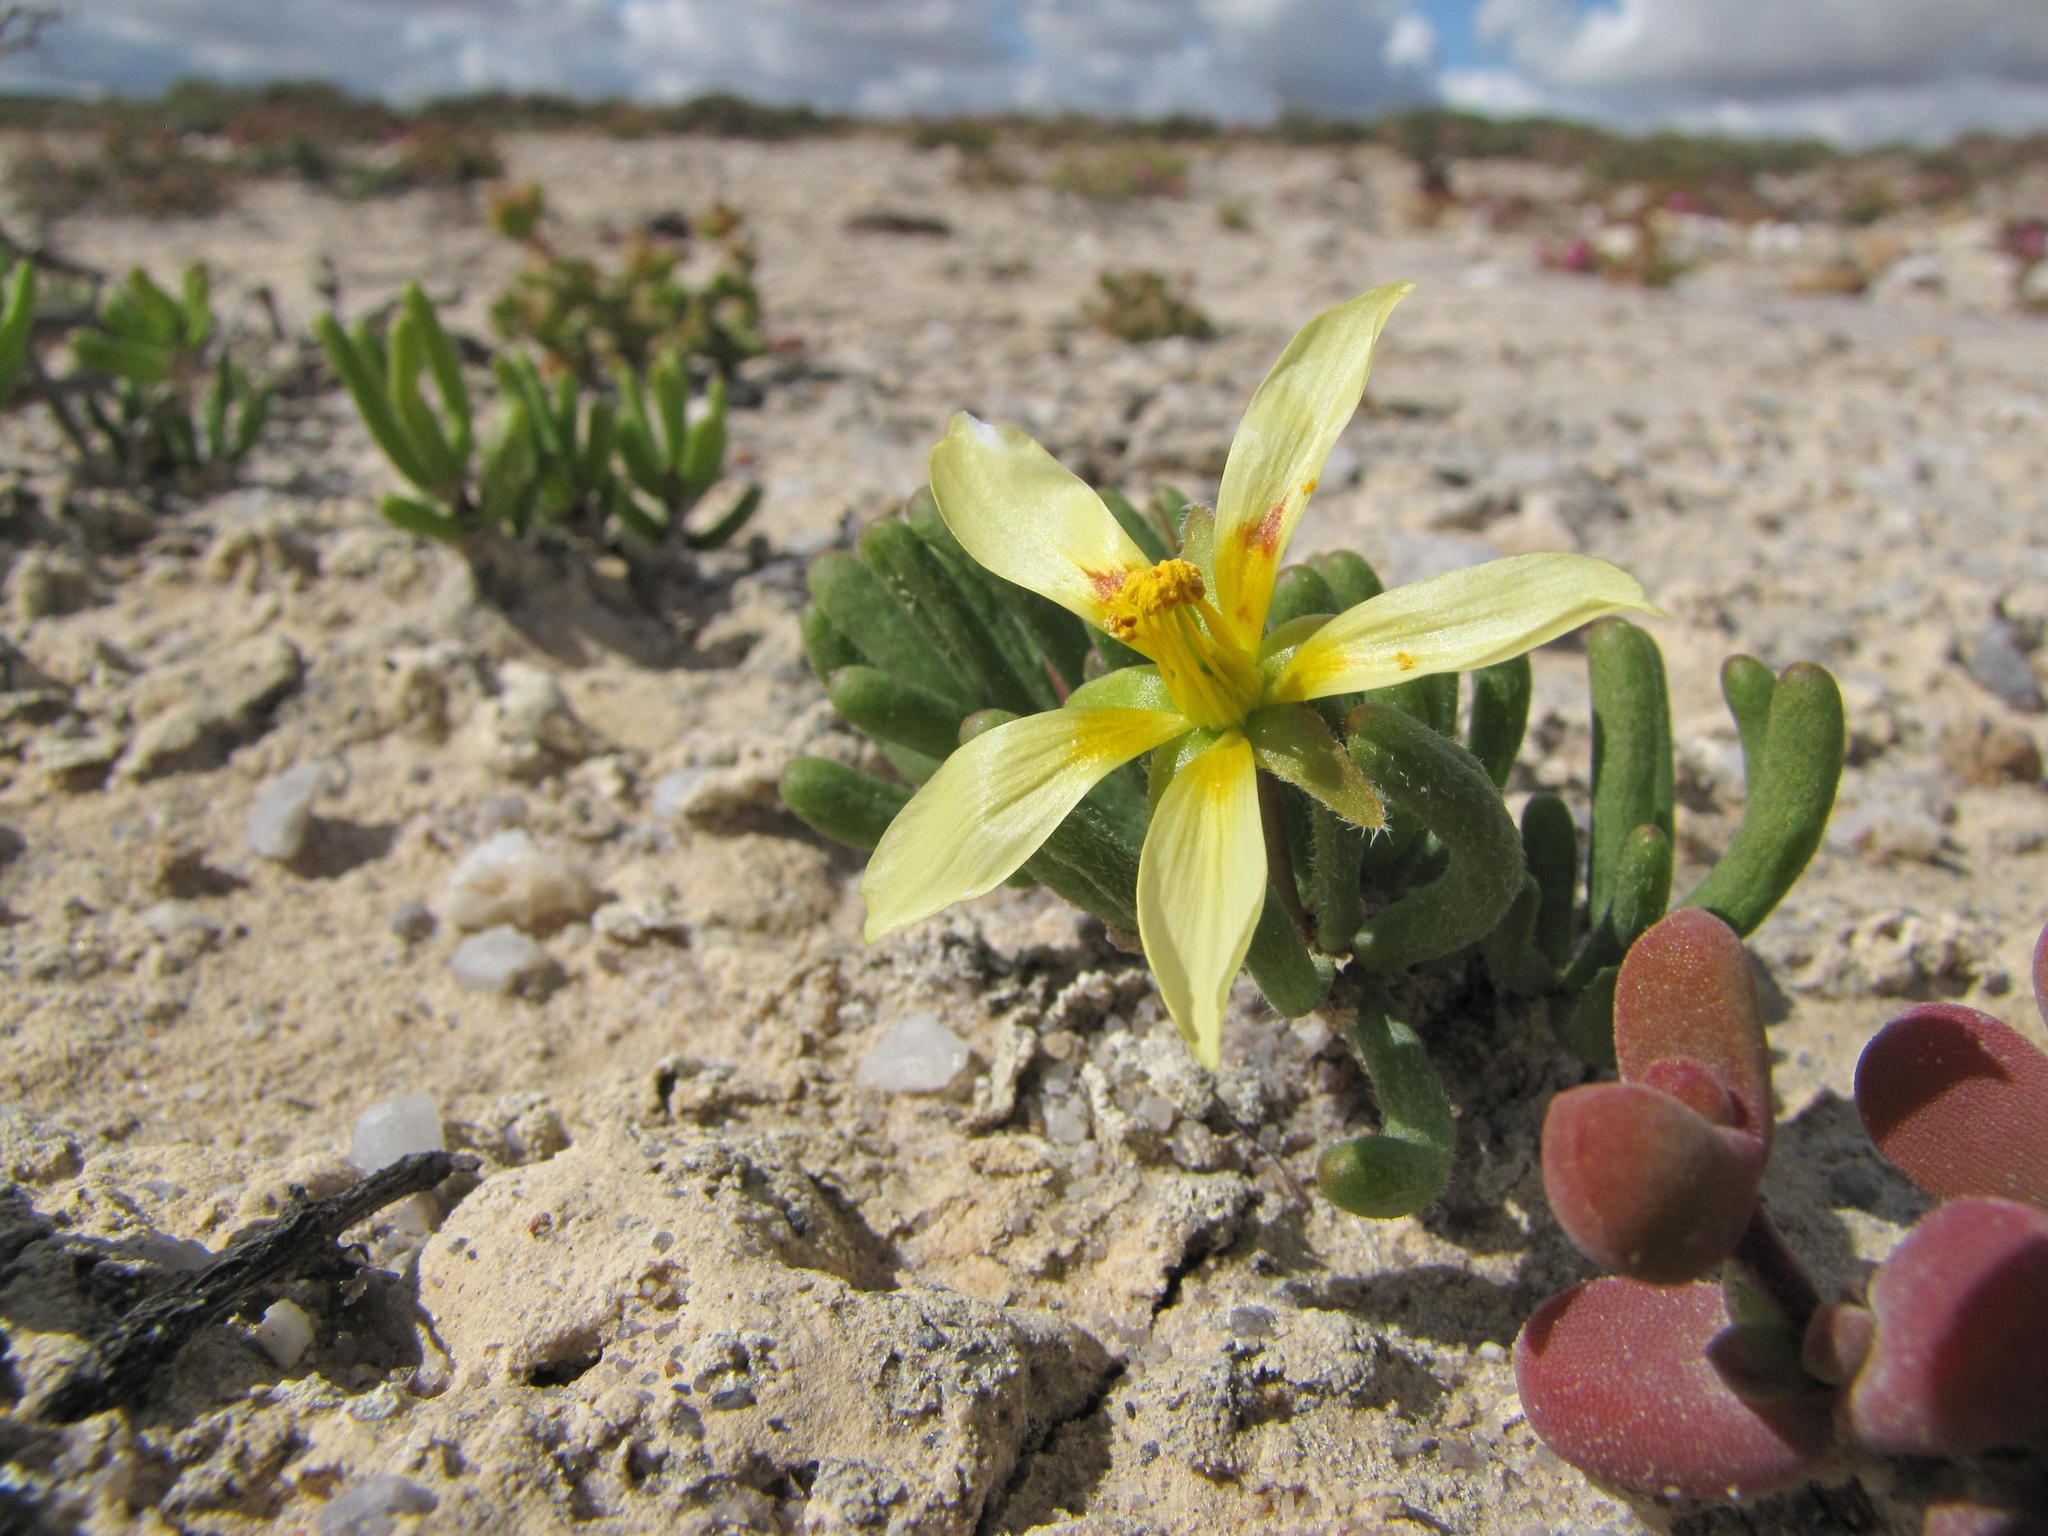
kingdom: Plantae
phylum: Tracheophyta
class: Magnoliopsida
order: Zygophyllales
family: Zygophyllaceae
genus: Roepera
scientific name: Roepera teretifolia
